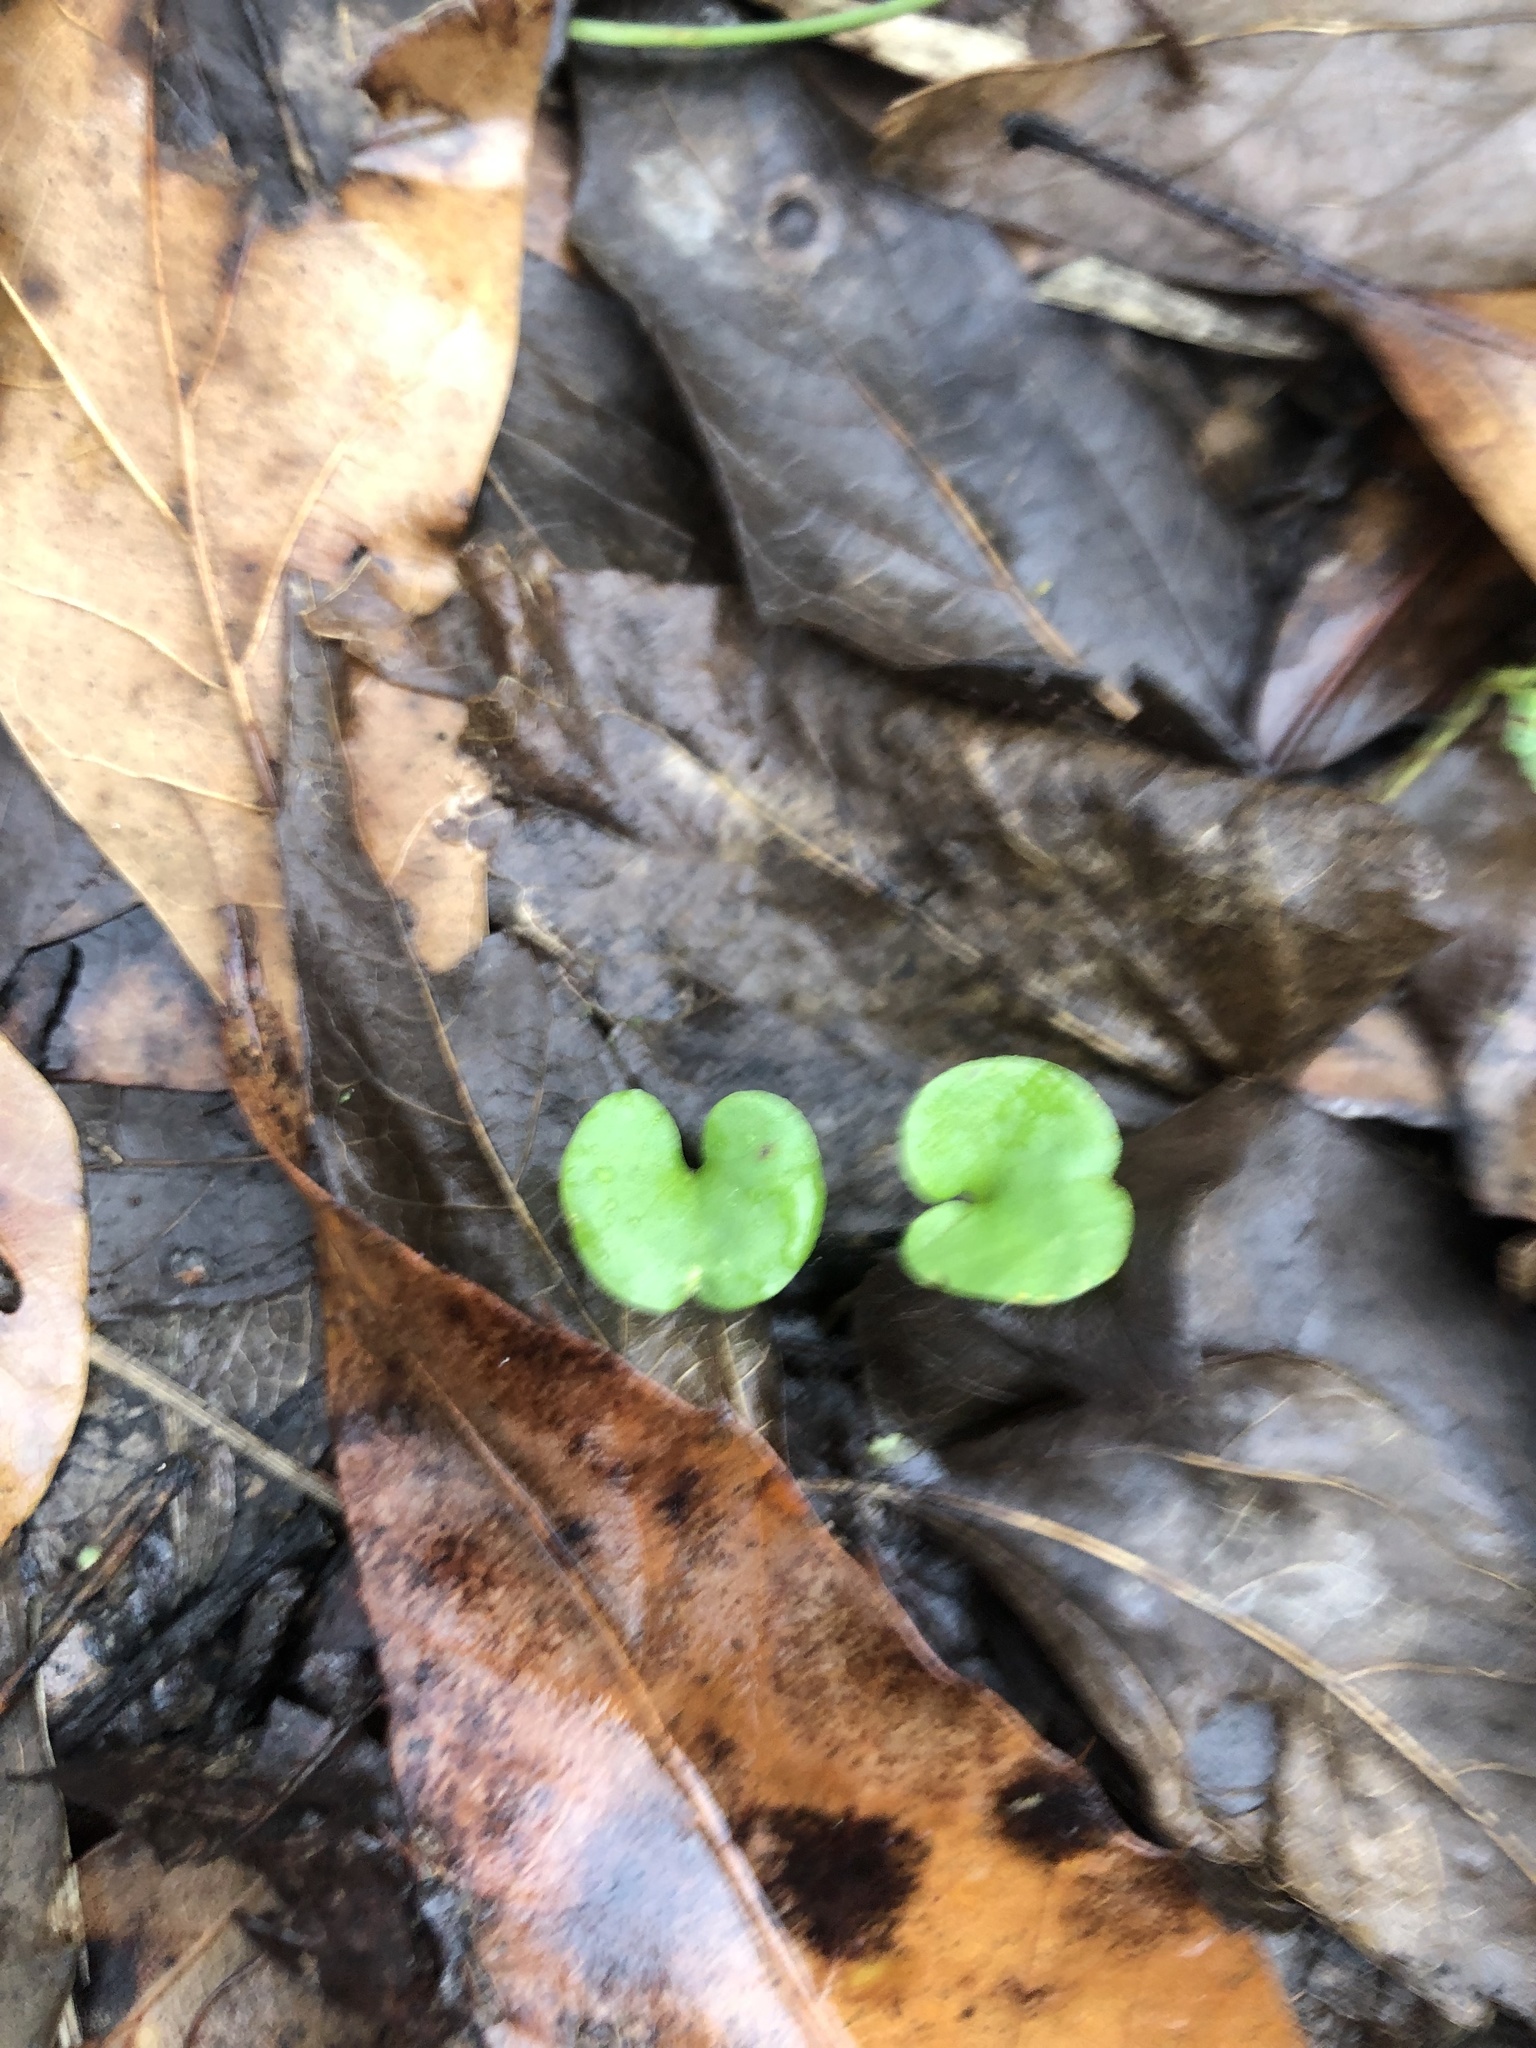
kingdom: Plantae
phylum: Tracheophyta
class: Magnoliopsida
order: Solanales
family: Convolvulaceae
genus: Dichondra
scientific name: Dichondra carolinensis
